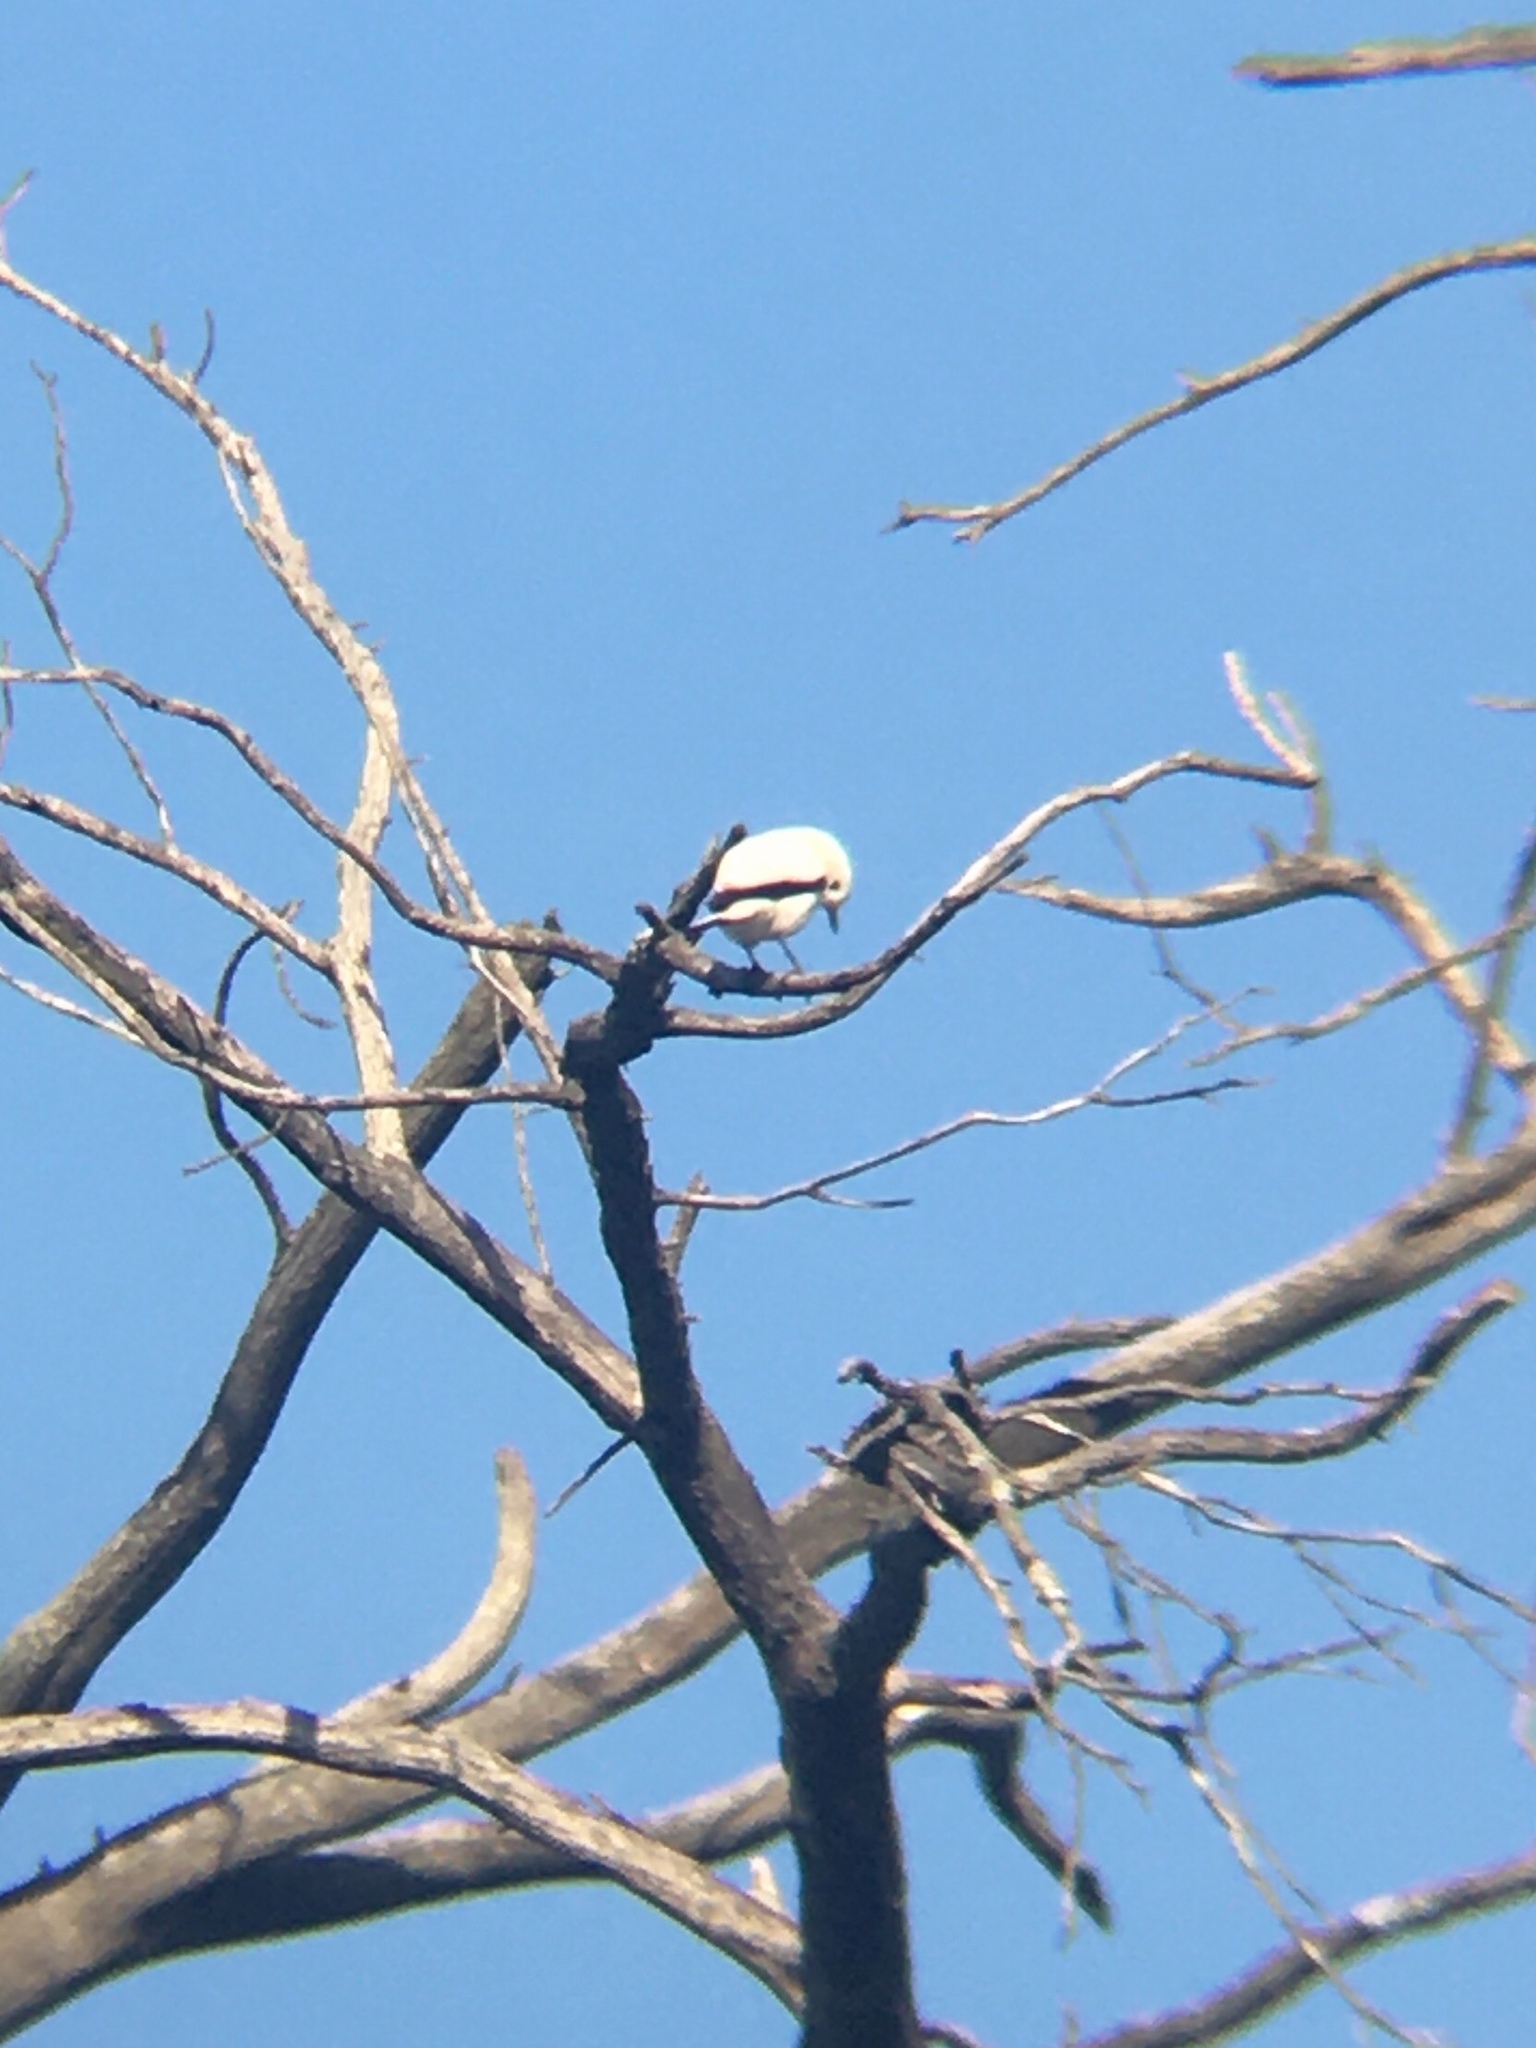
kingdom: Animalia
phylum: Chordata
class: Aves
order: Passeriformes
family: Tyrannidae
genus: Xolmis
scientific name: Xolmis irupero
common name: White monjita
